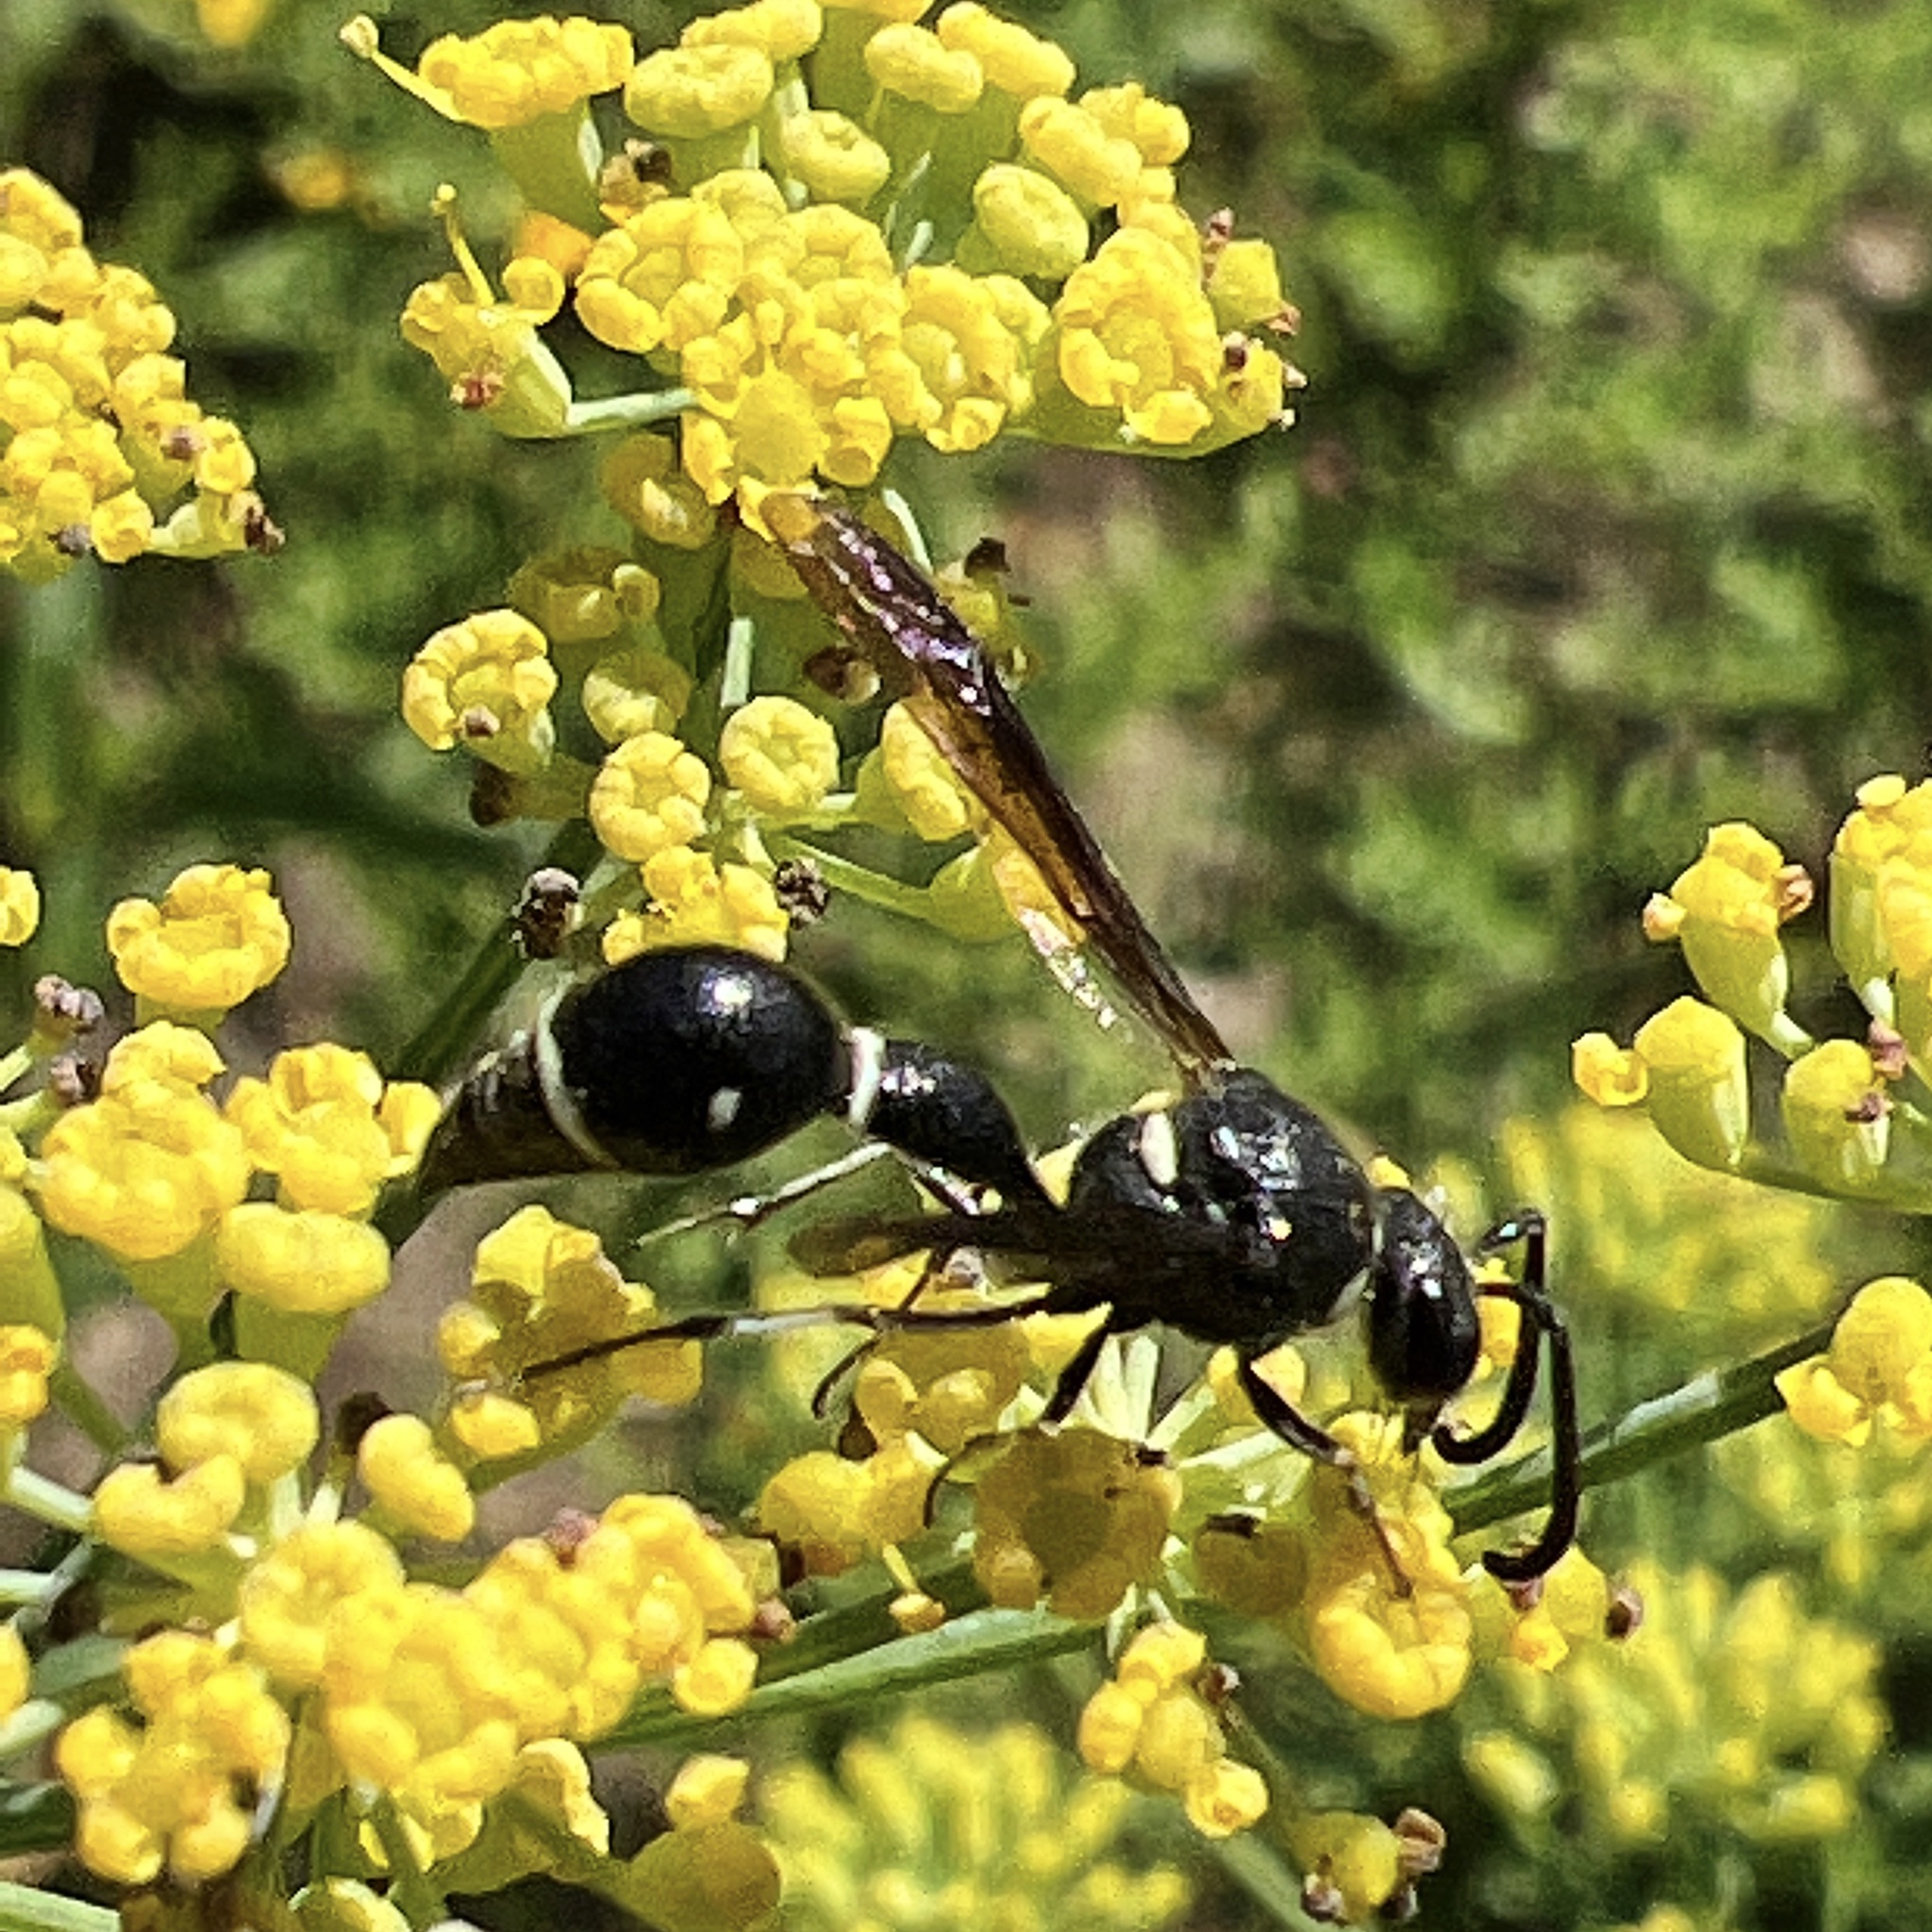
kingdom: Animalia
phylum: Arthropoda
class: Insecta
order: Hymenoptera
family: Vespidae
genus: Eumenes
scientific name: Eumenes fraternus
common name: Fraternal potter wasp
